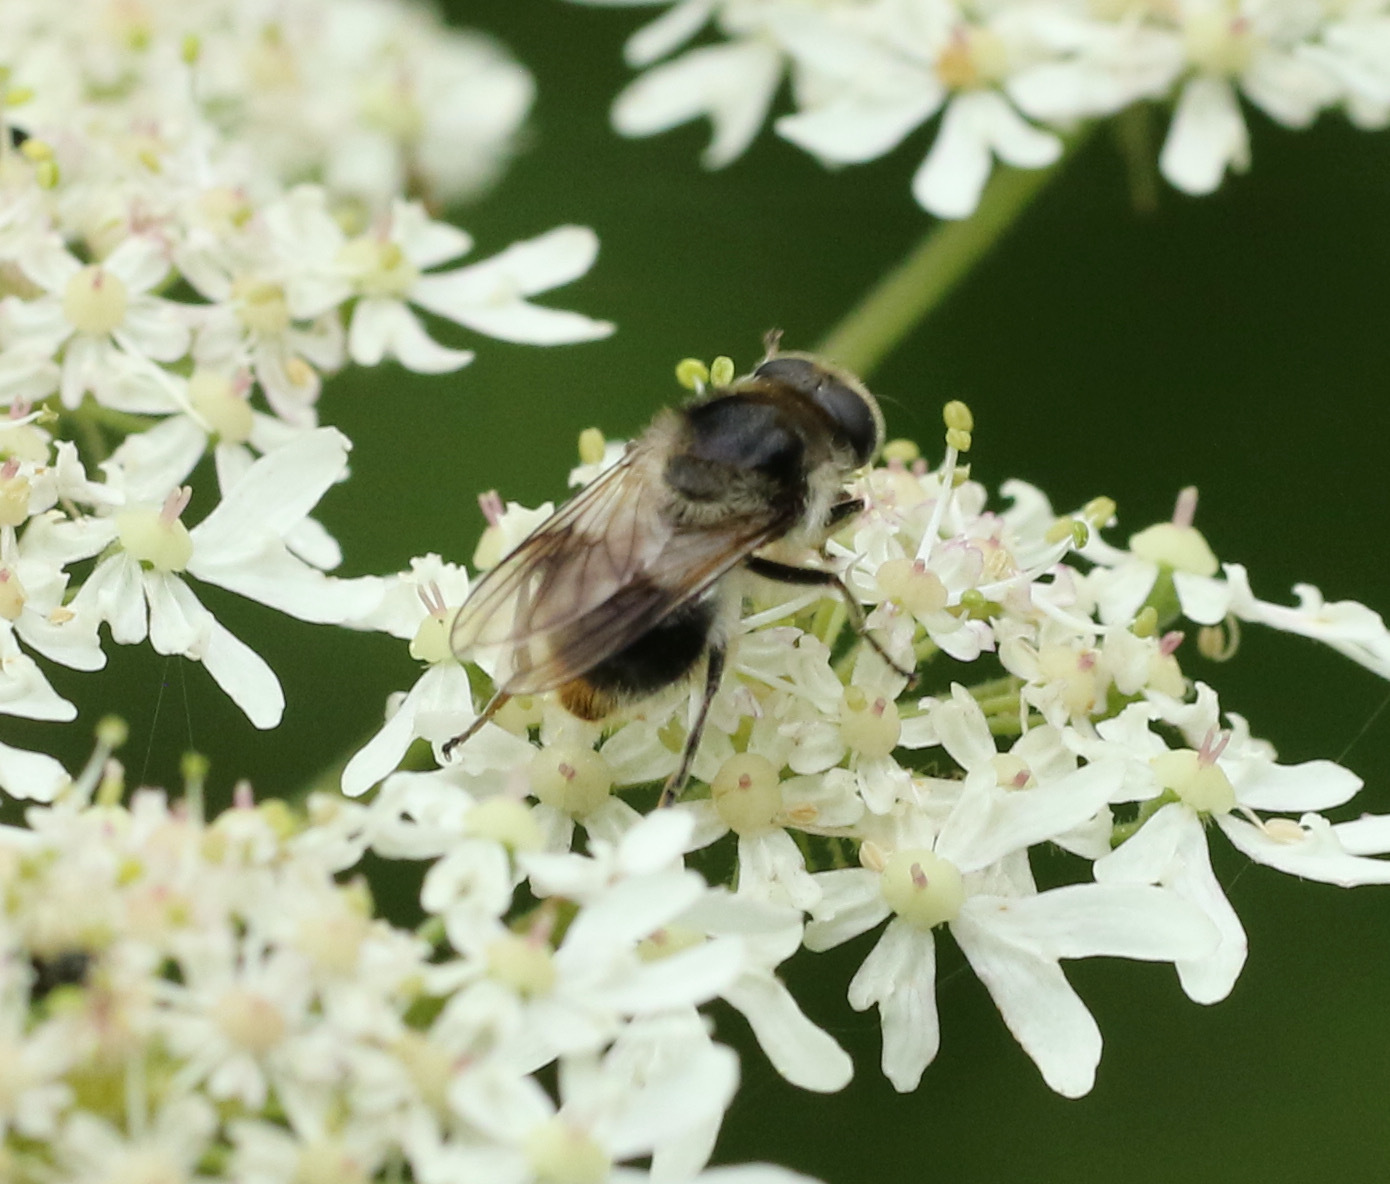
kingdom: Animalia
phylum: Arthropoda
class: Insecta
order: Diptera
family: Syrphidae
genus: Cheilosia
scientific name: Cheilosia illustrata
